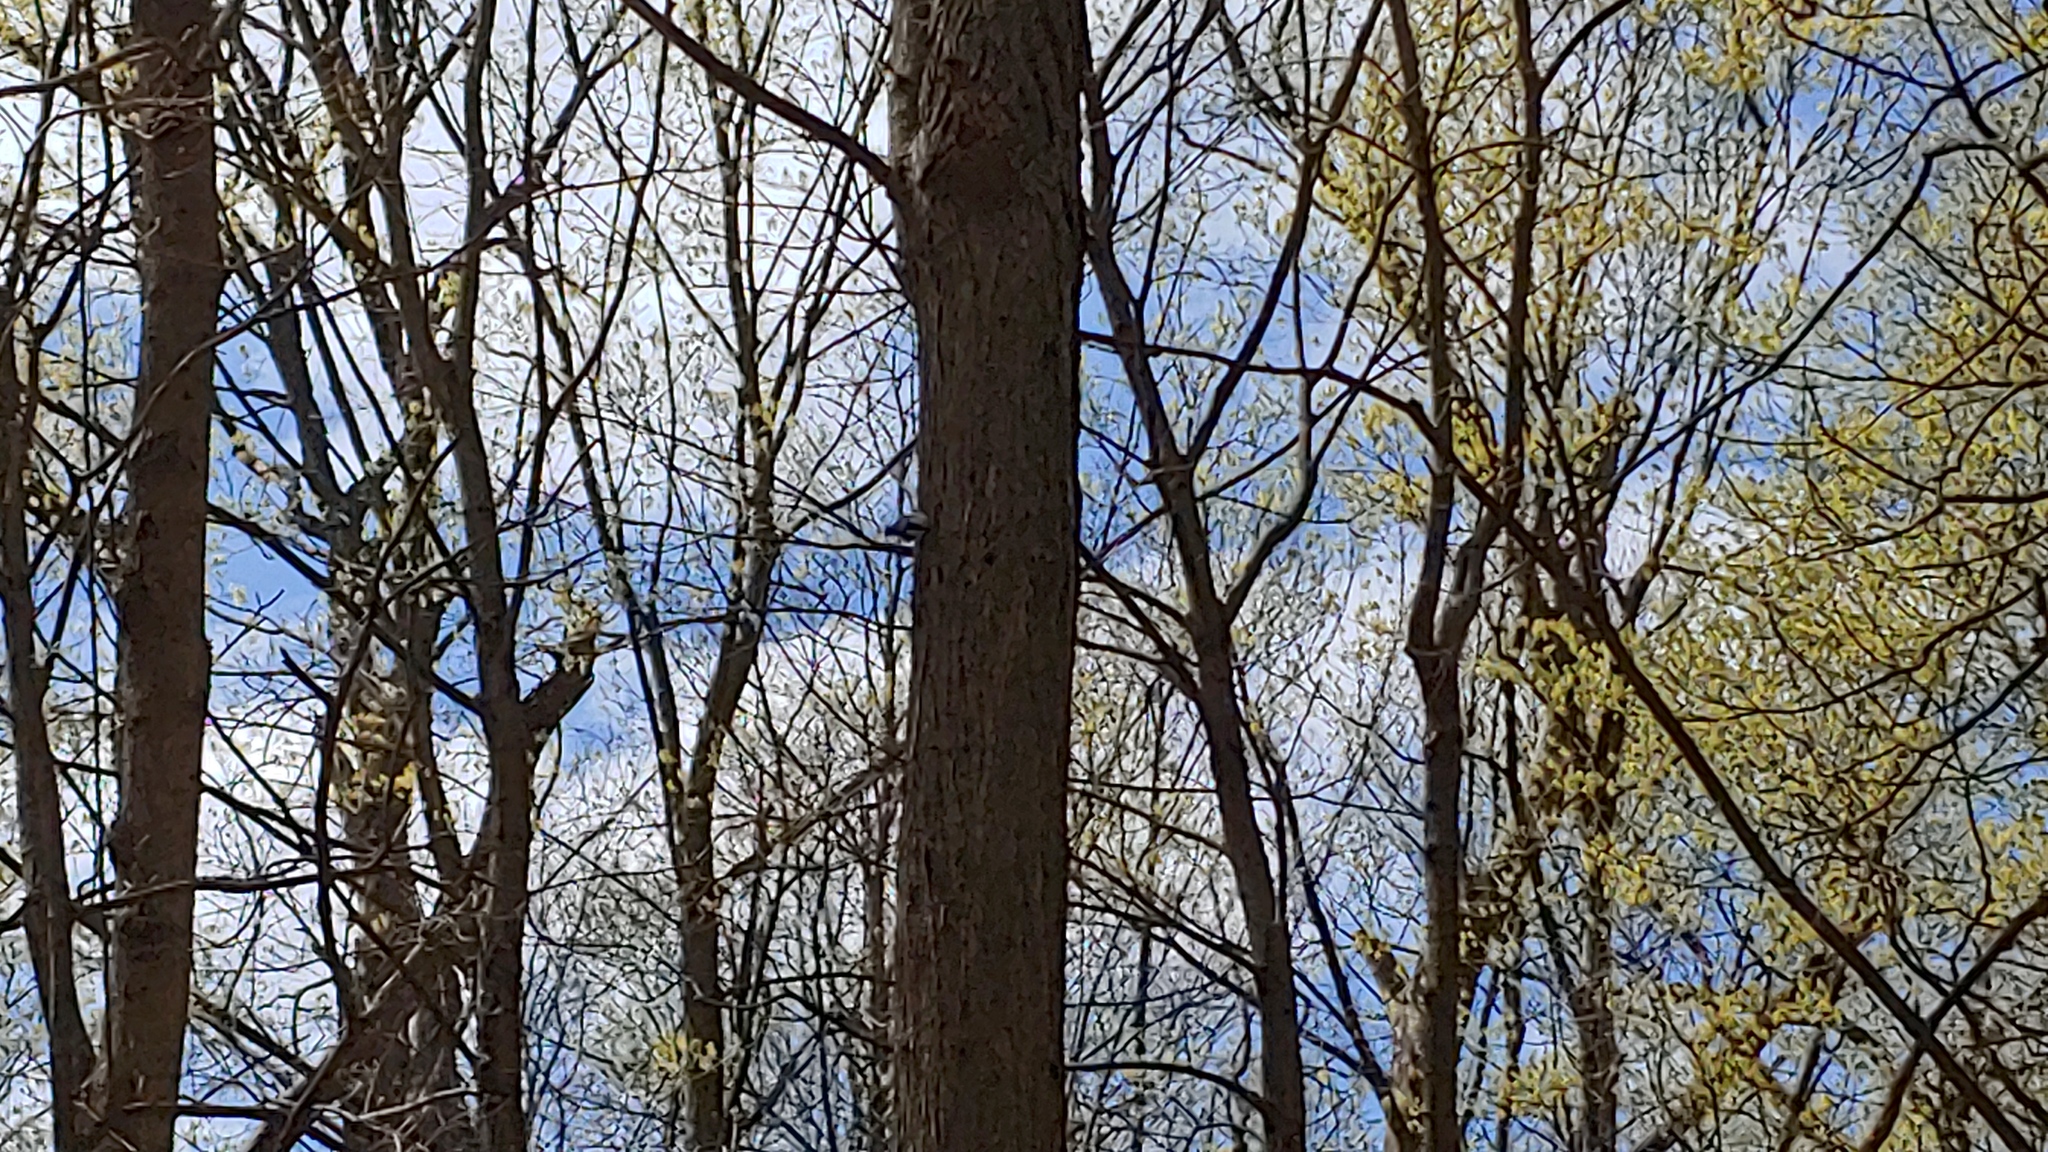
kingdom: Animalia
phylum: Chordata
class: Aves
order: Passeriformes
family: Sittidae
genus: Sitta
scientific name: Sitta carolinensis
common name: White-breasted nuthatch
